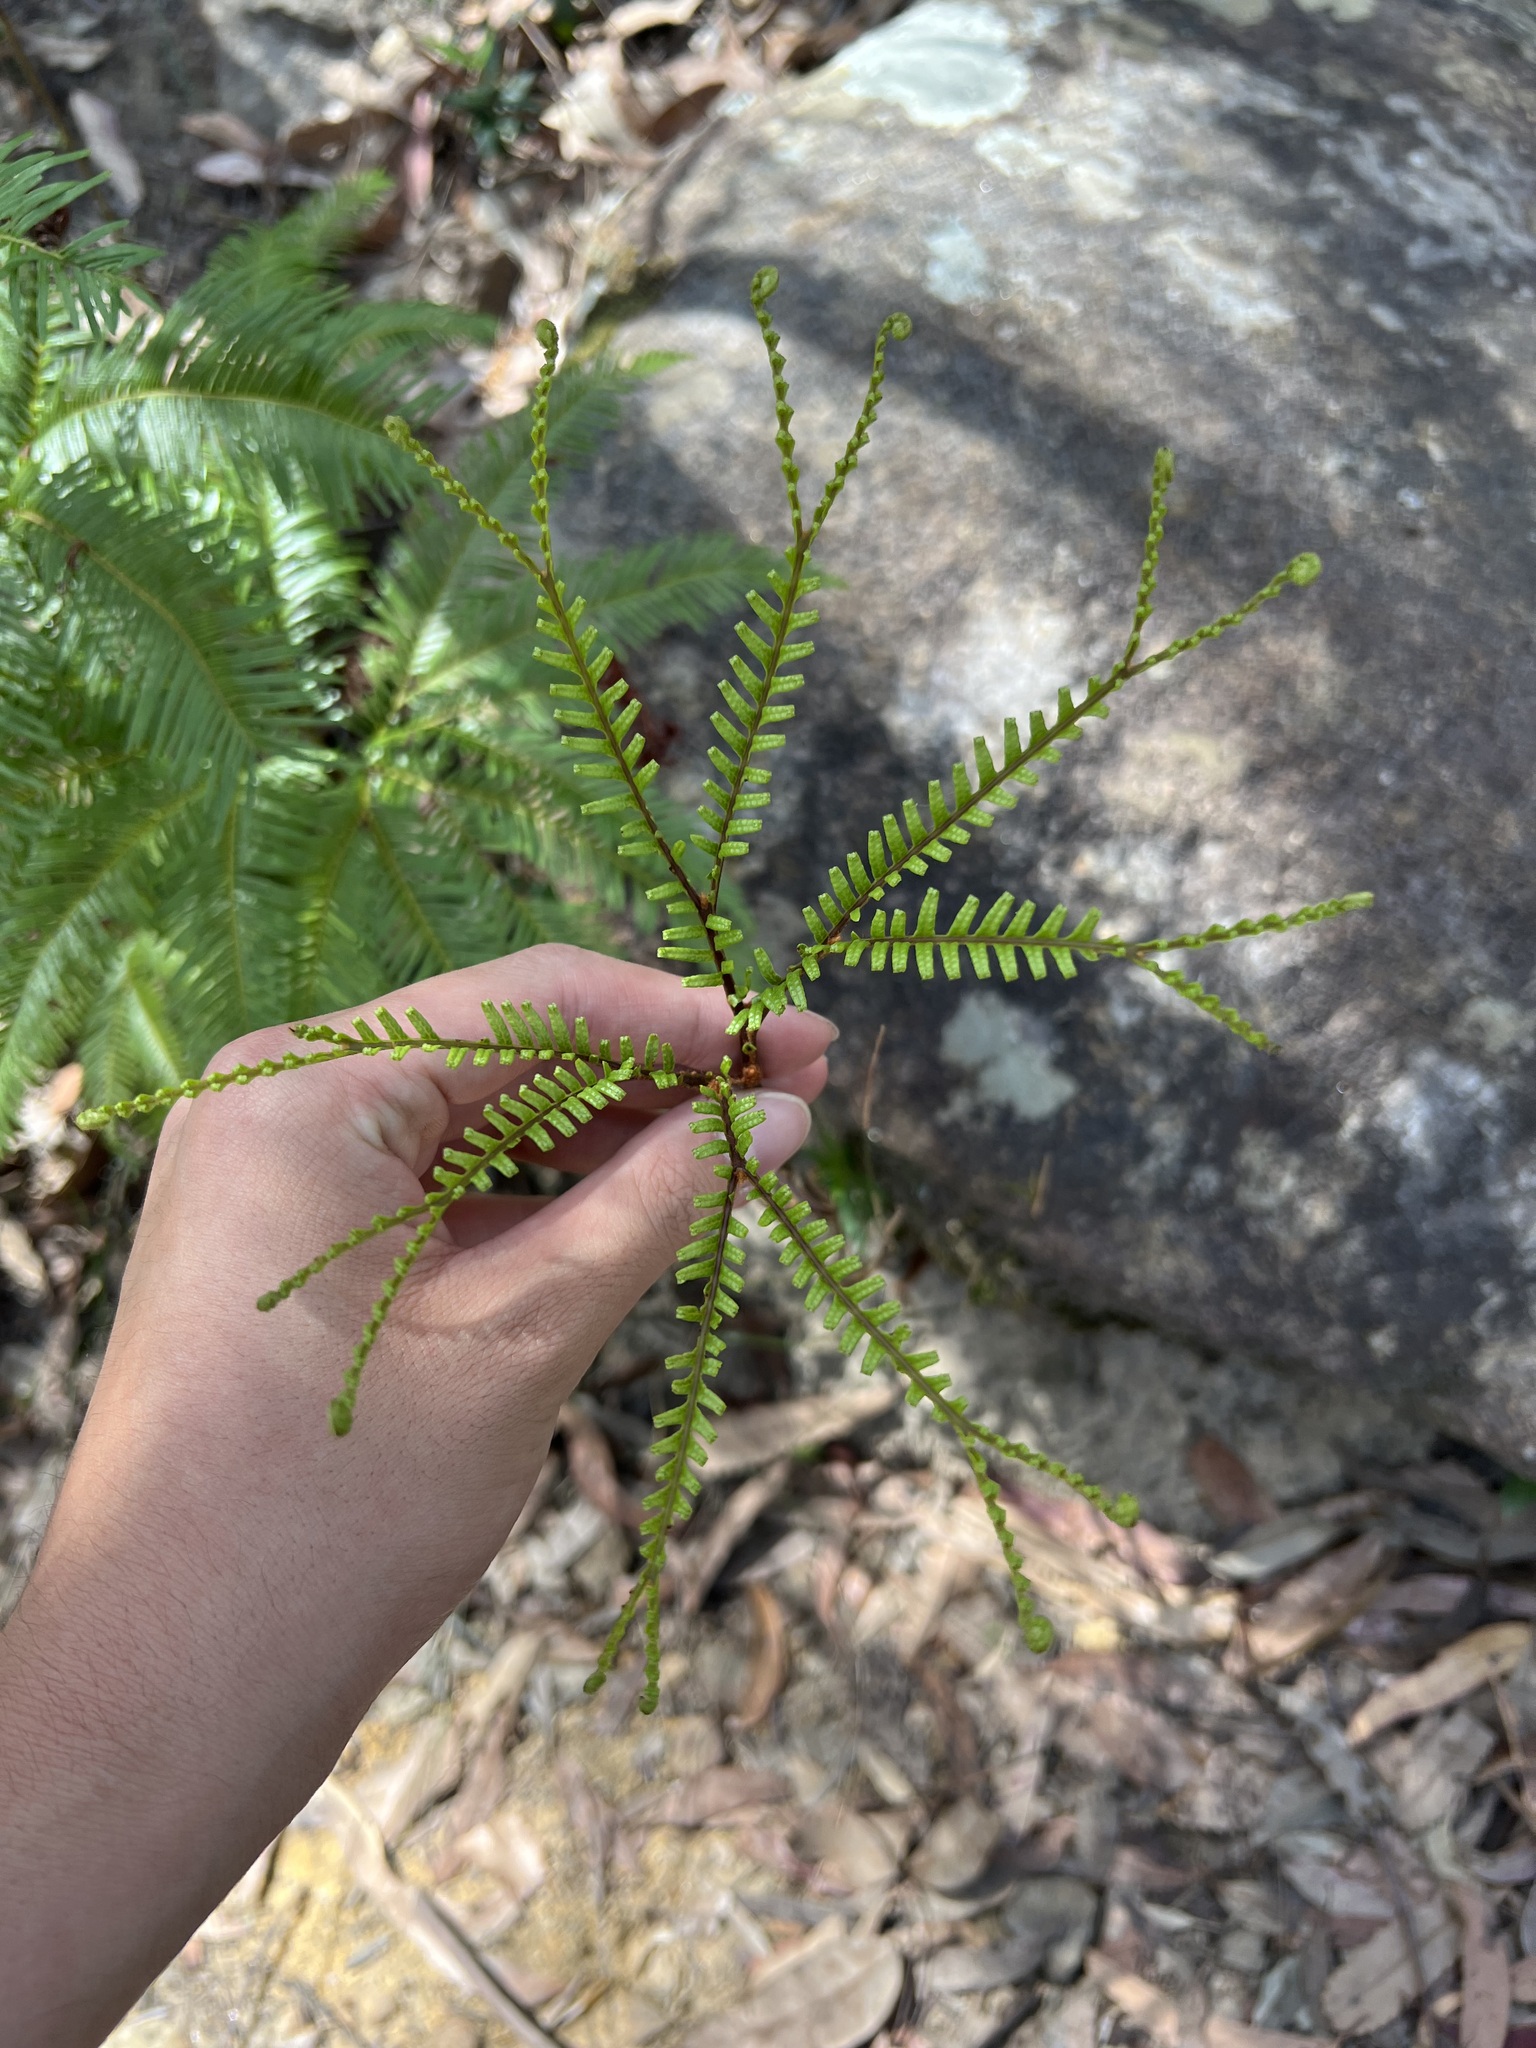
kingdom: Plantae
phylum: Tracheophyta
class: Polypodiopsida
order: Gleicheniales
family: Gleicheniaceae
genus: Sticherus
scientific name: Sticherus flabellatus
